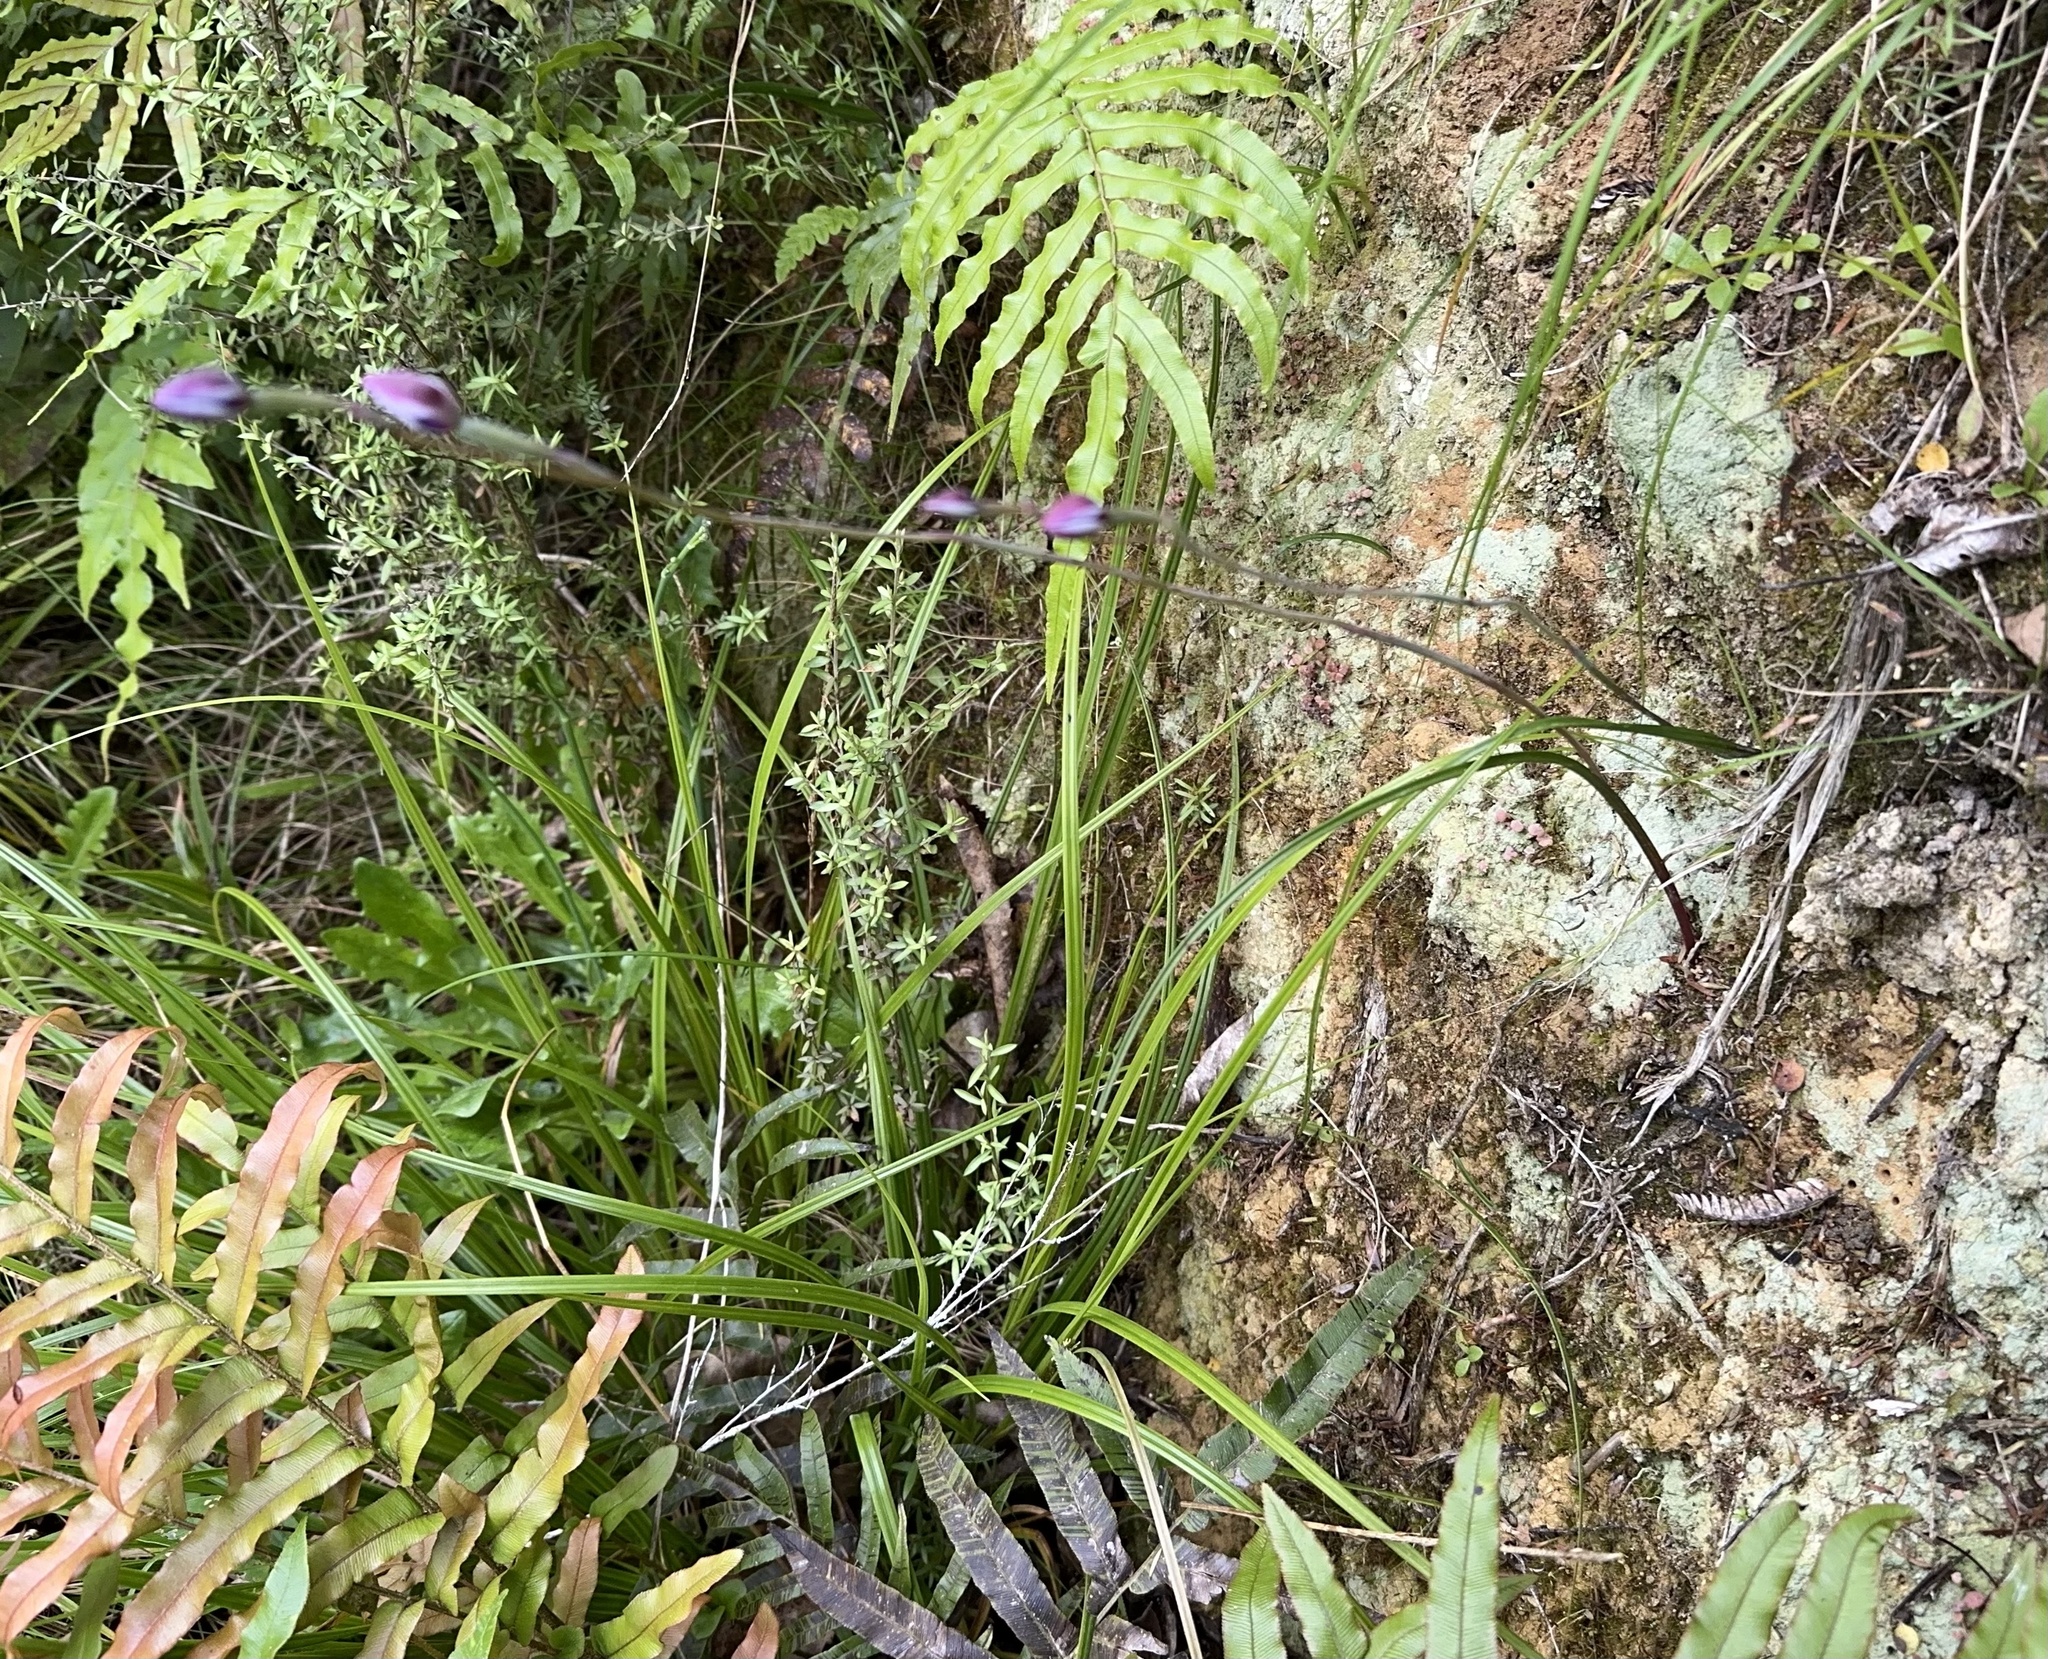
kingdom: Plantae
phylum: Tracheophyta
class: Liliopsida
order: Asparagales
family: Orchidaceae
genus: Thelymitra
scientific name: Thelymitra nervosa
